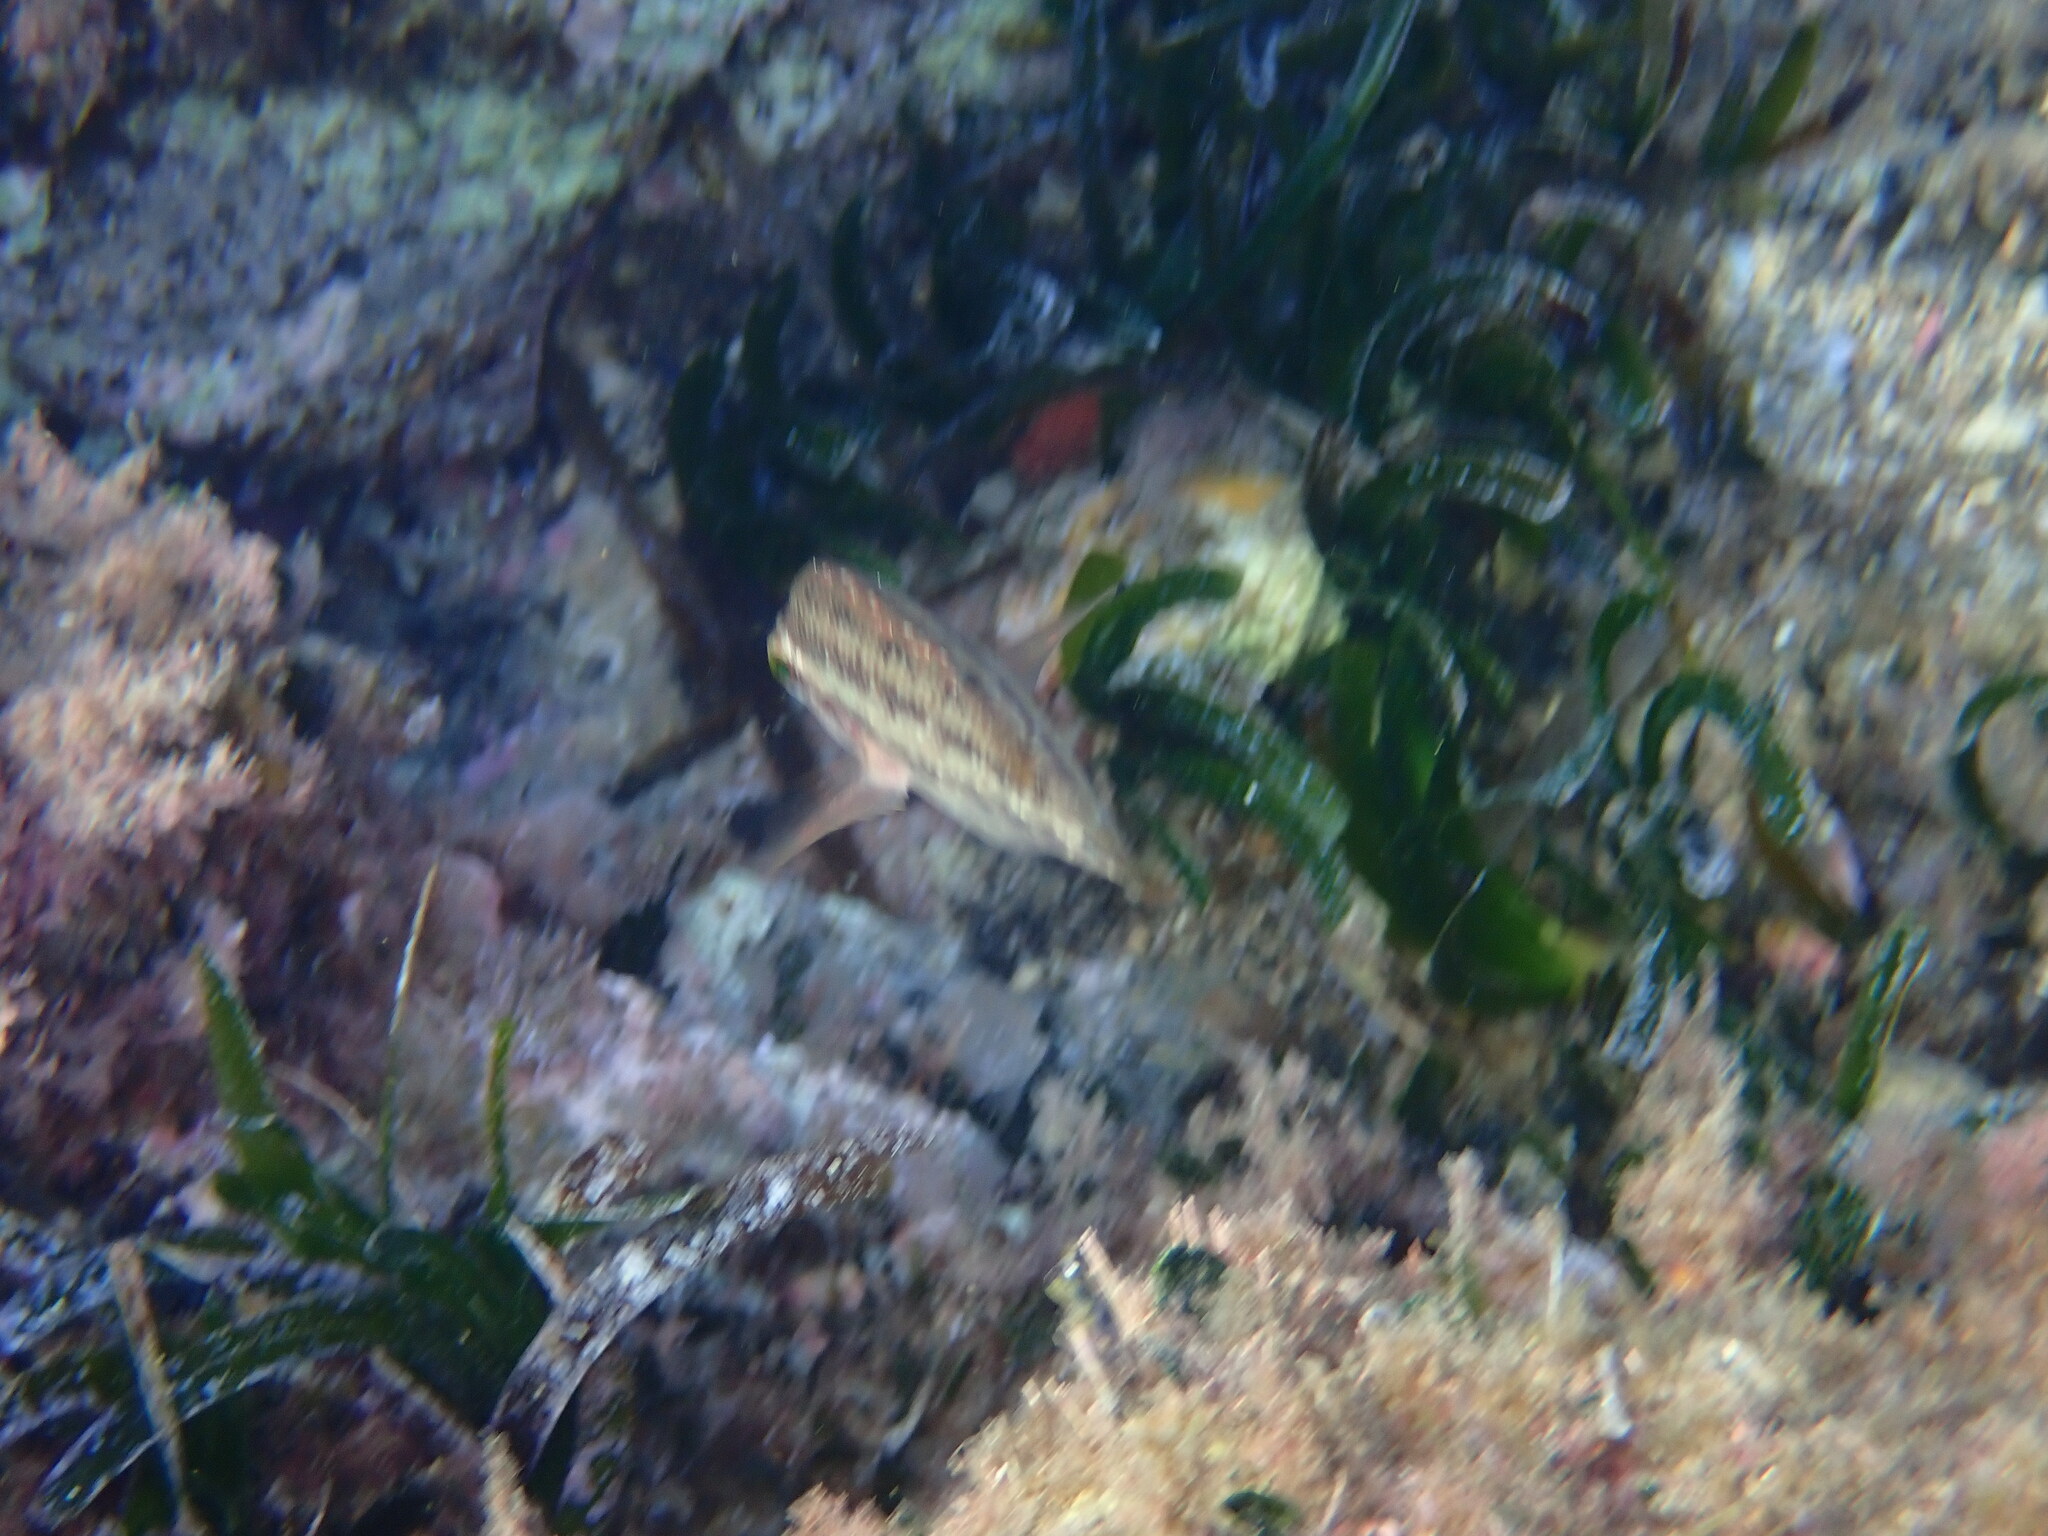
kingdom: Animalia
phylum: Chordata
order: Perciformes
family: Labridae
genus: Symphodus
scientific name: Symphodus tinca
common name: Peacock wrasse
